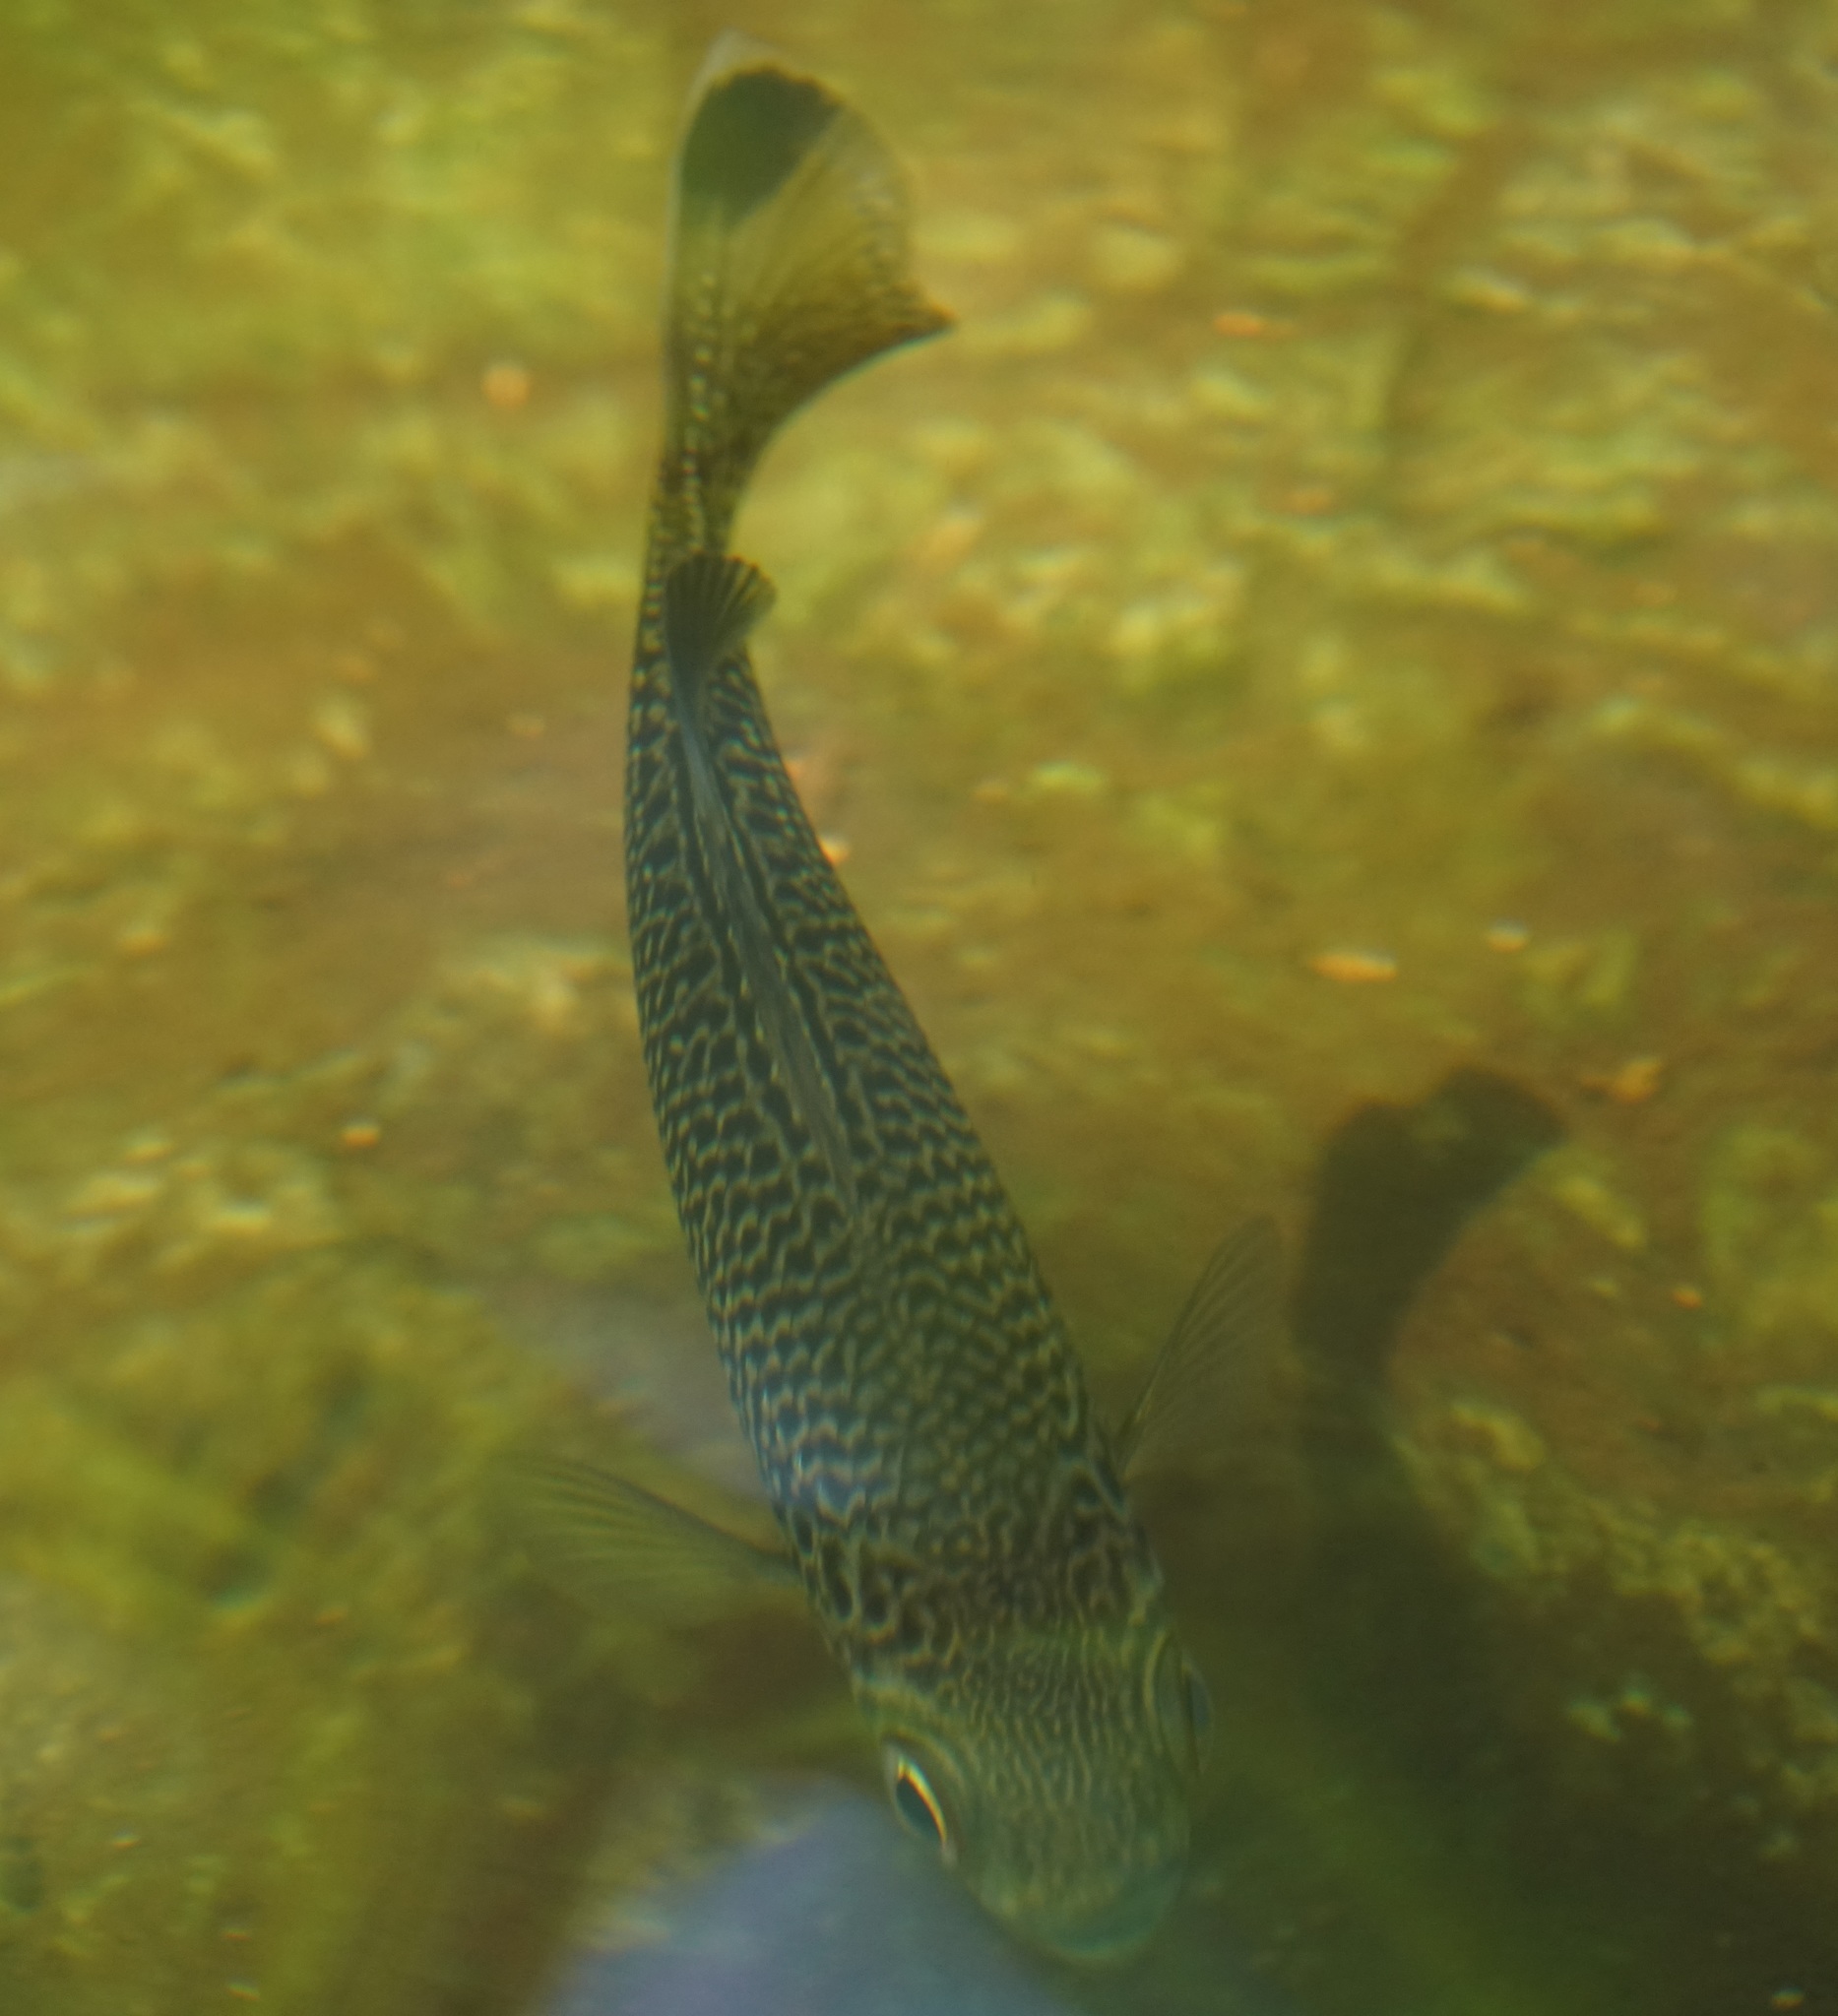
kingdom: Animalia
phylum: Chordata
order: Perciformes
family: Kuhliidae
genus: Kuhlia
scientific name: Kuhlia rupestris
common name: Rock flagtail
